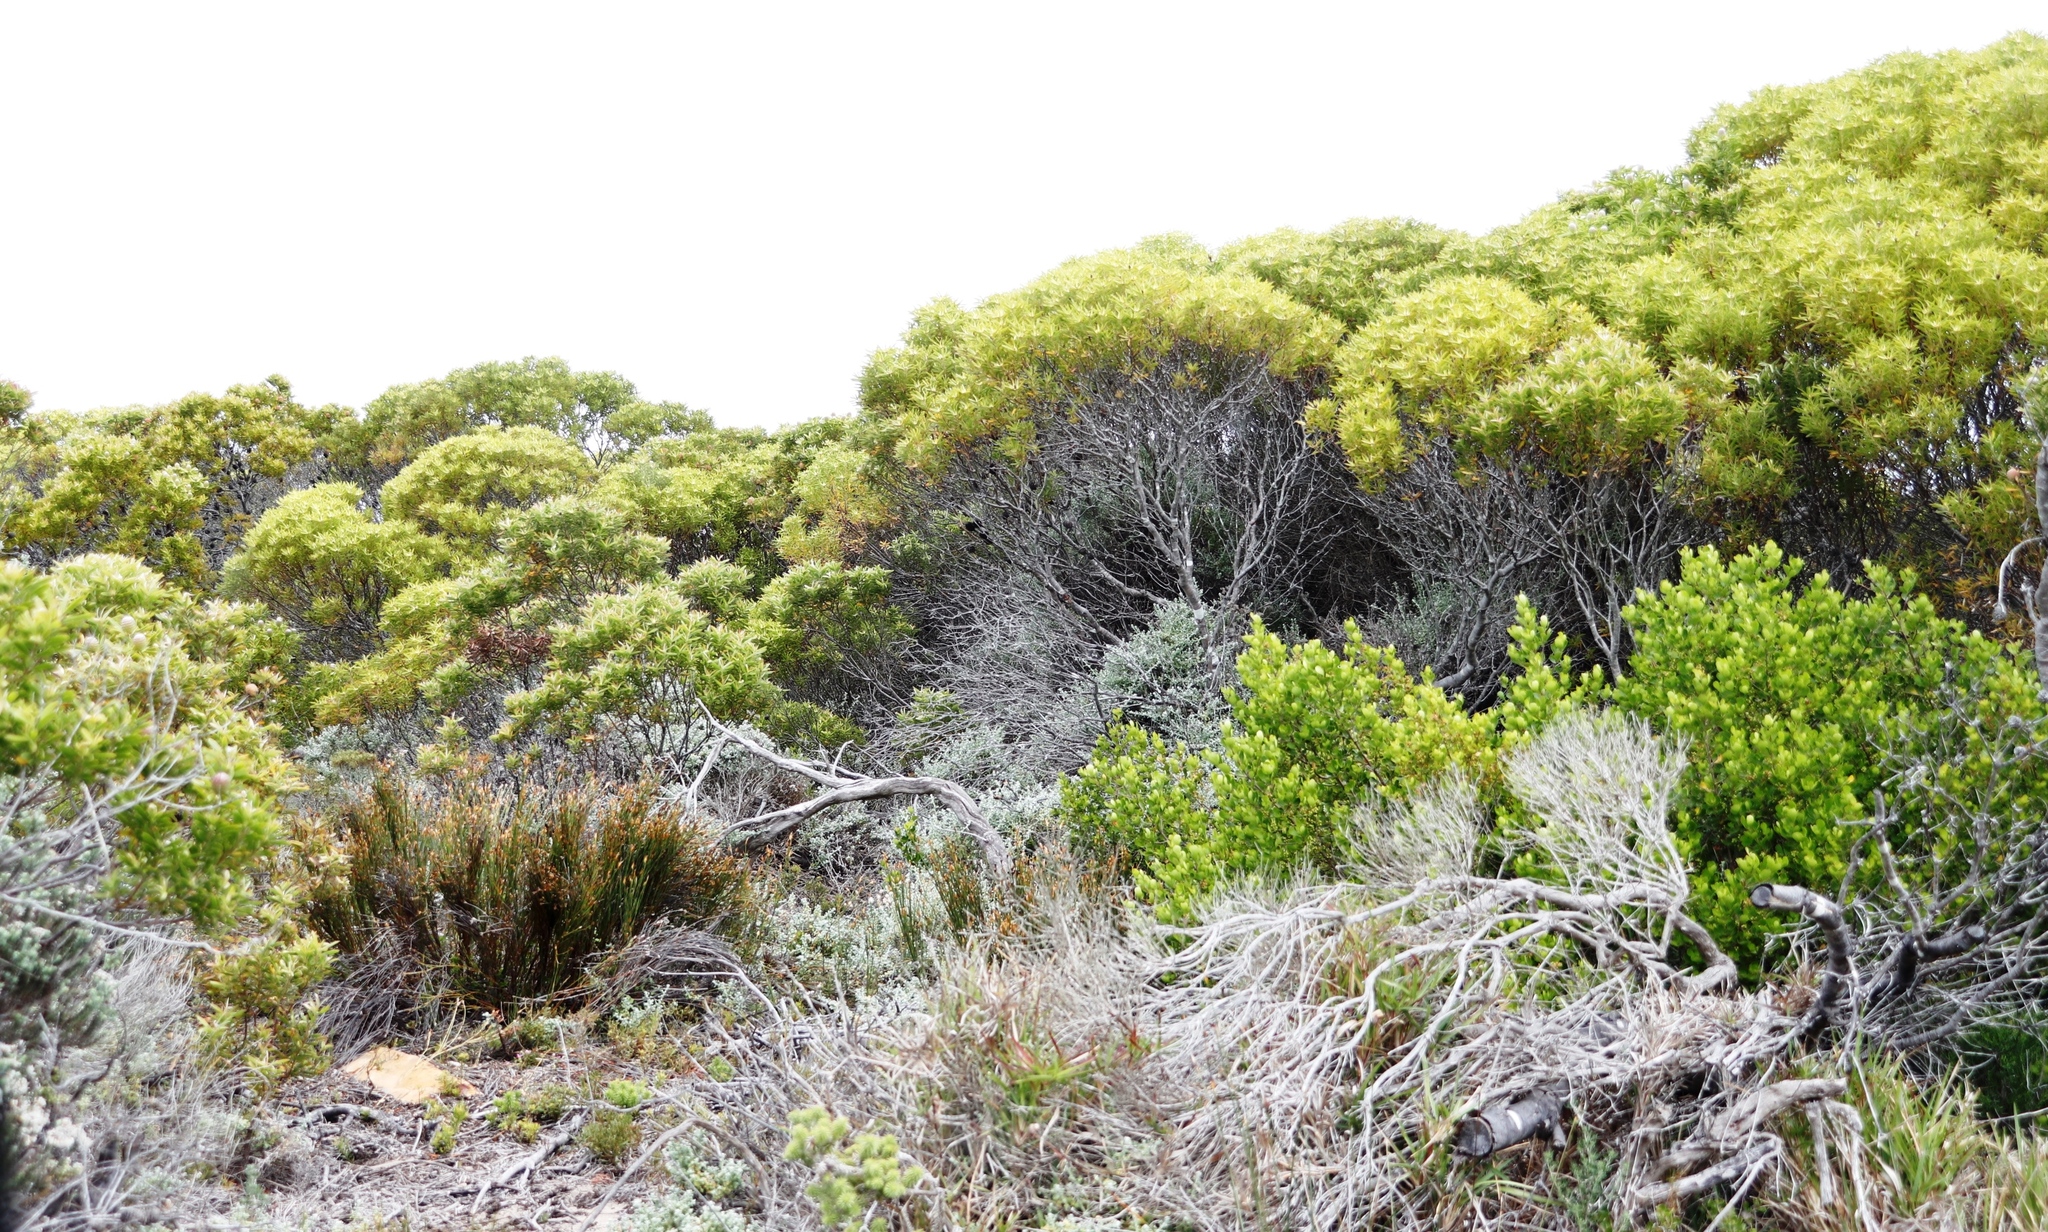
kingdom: Plantae
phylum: Tracheophyta
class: Magnoliopsida
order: Proteales
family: Proteaceae
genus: Leucadendron
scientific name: Leucadendron coniferum
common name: Dune conebush
